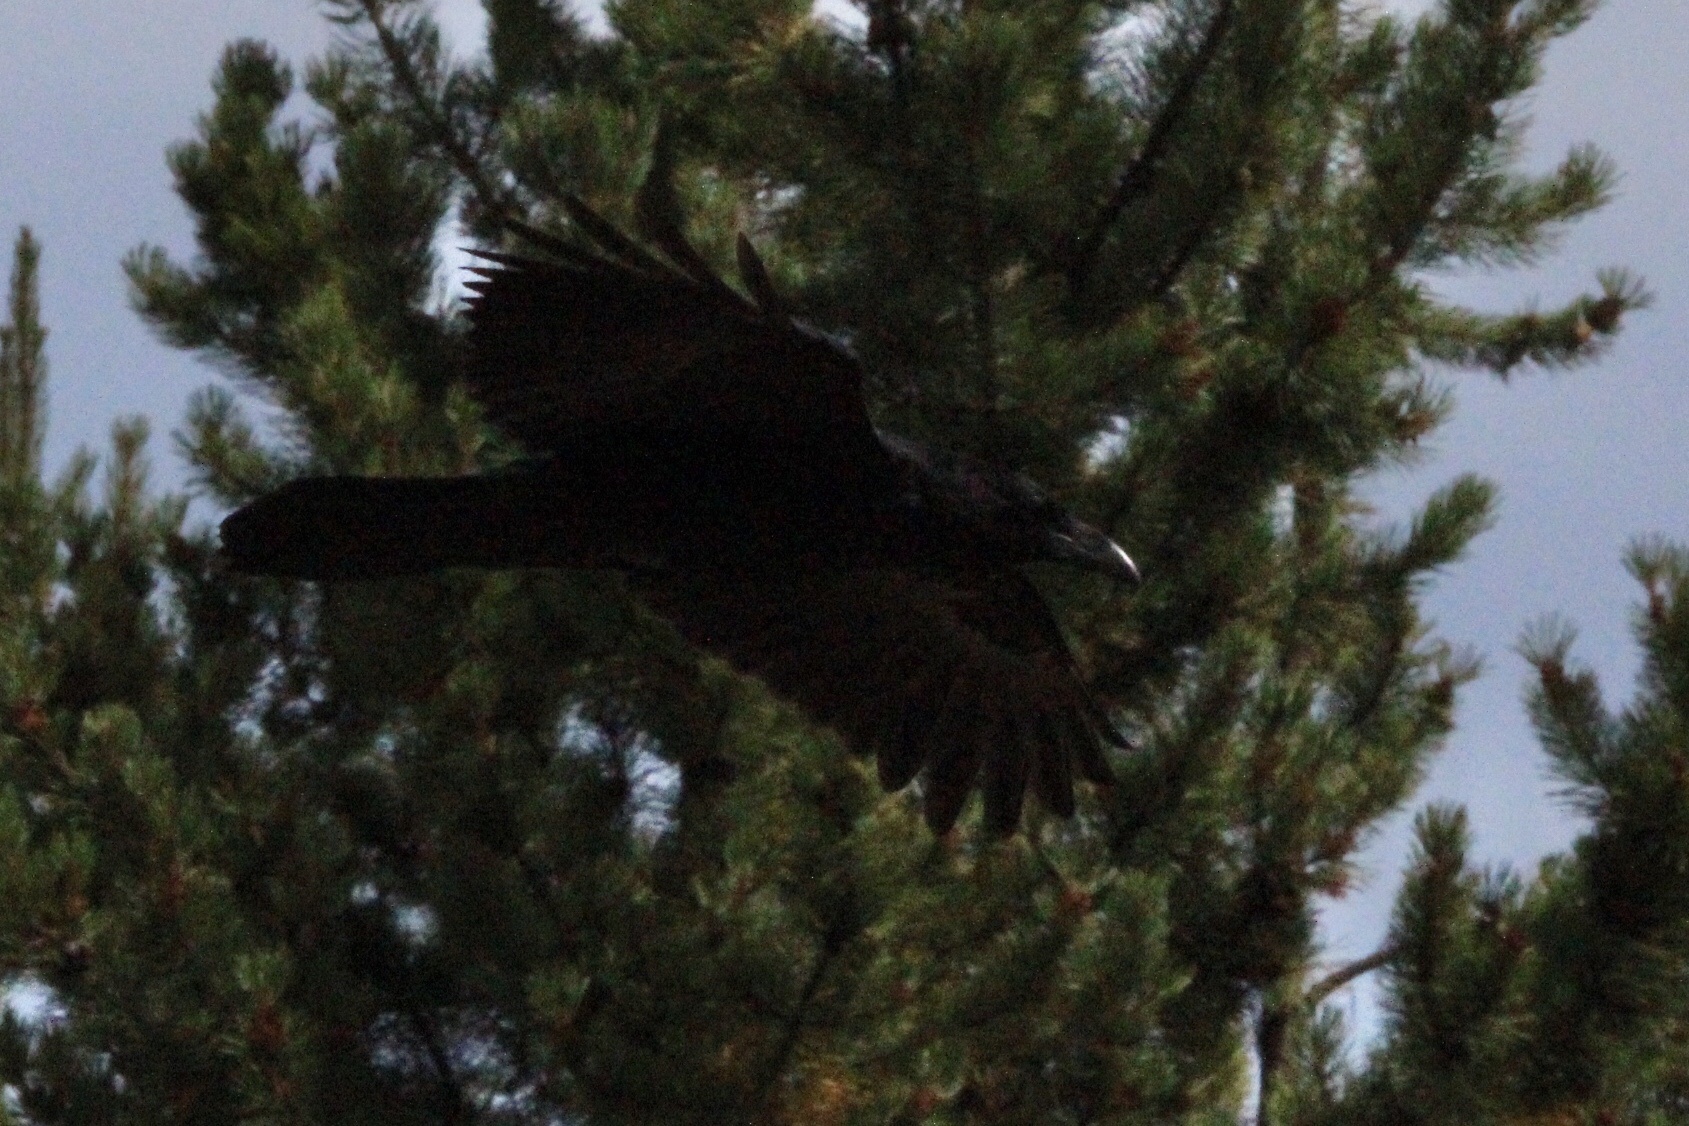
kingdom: Animalia
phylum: Chordata
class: Aves
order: Passeriformes
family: Corvidae
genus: Corvus
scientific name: Corvus corax
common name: Common raven
